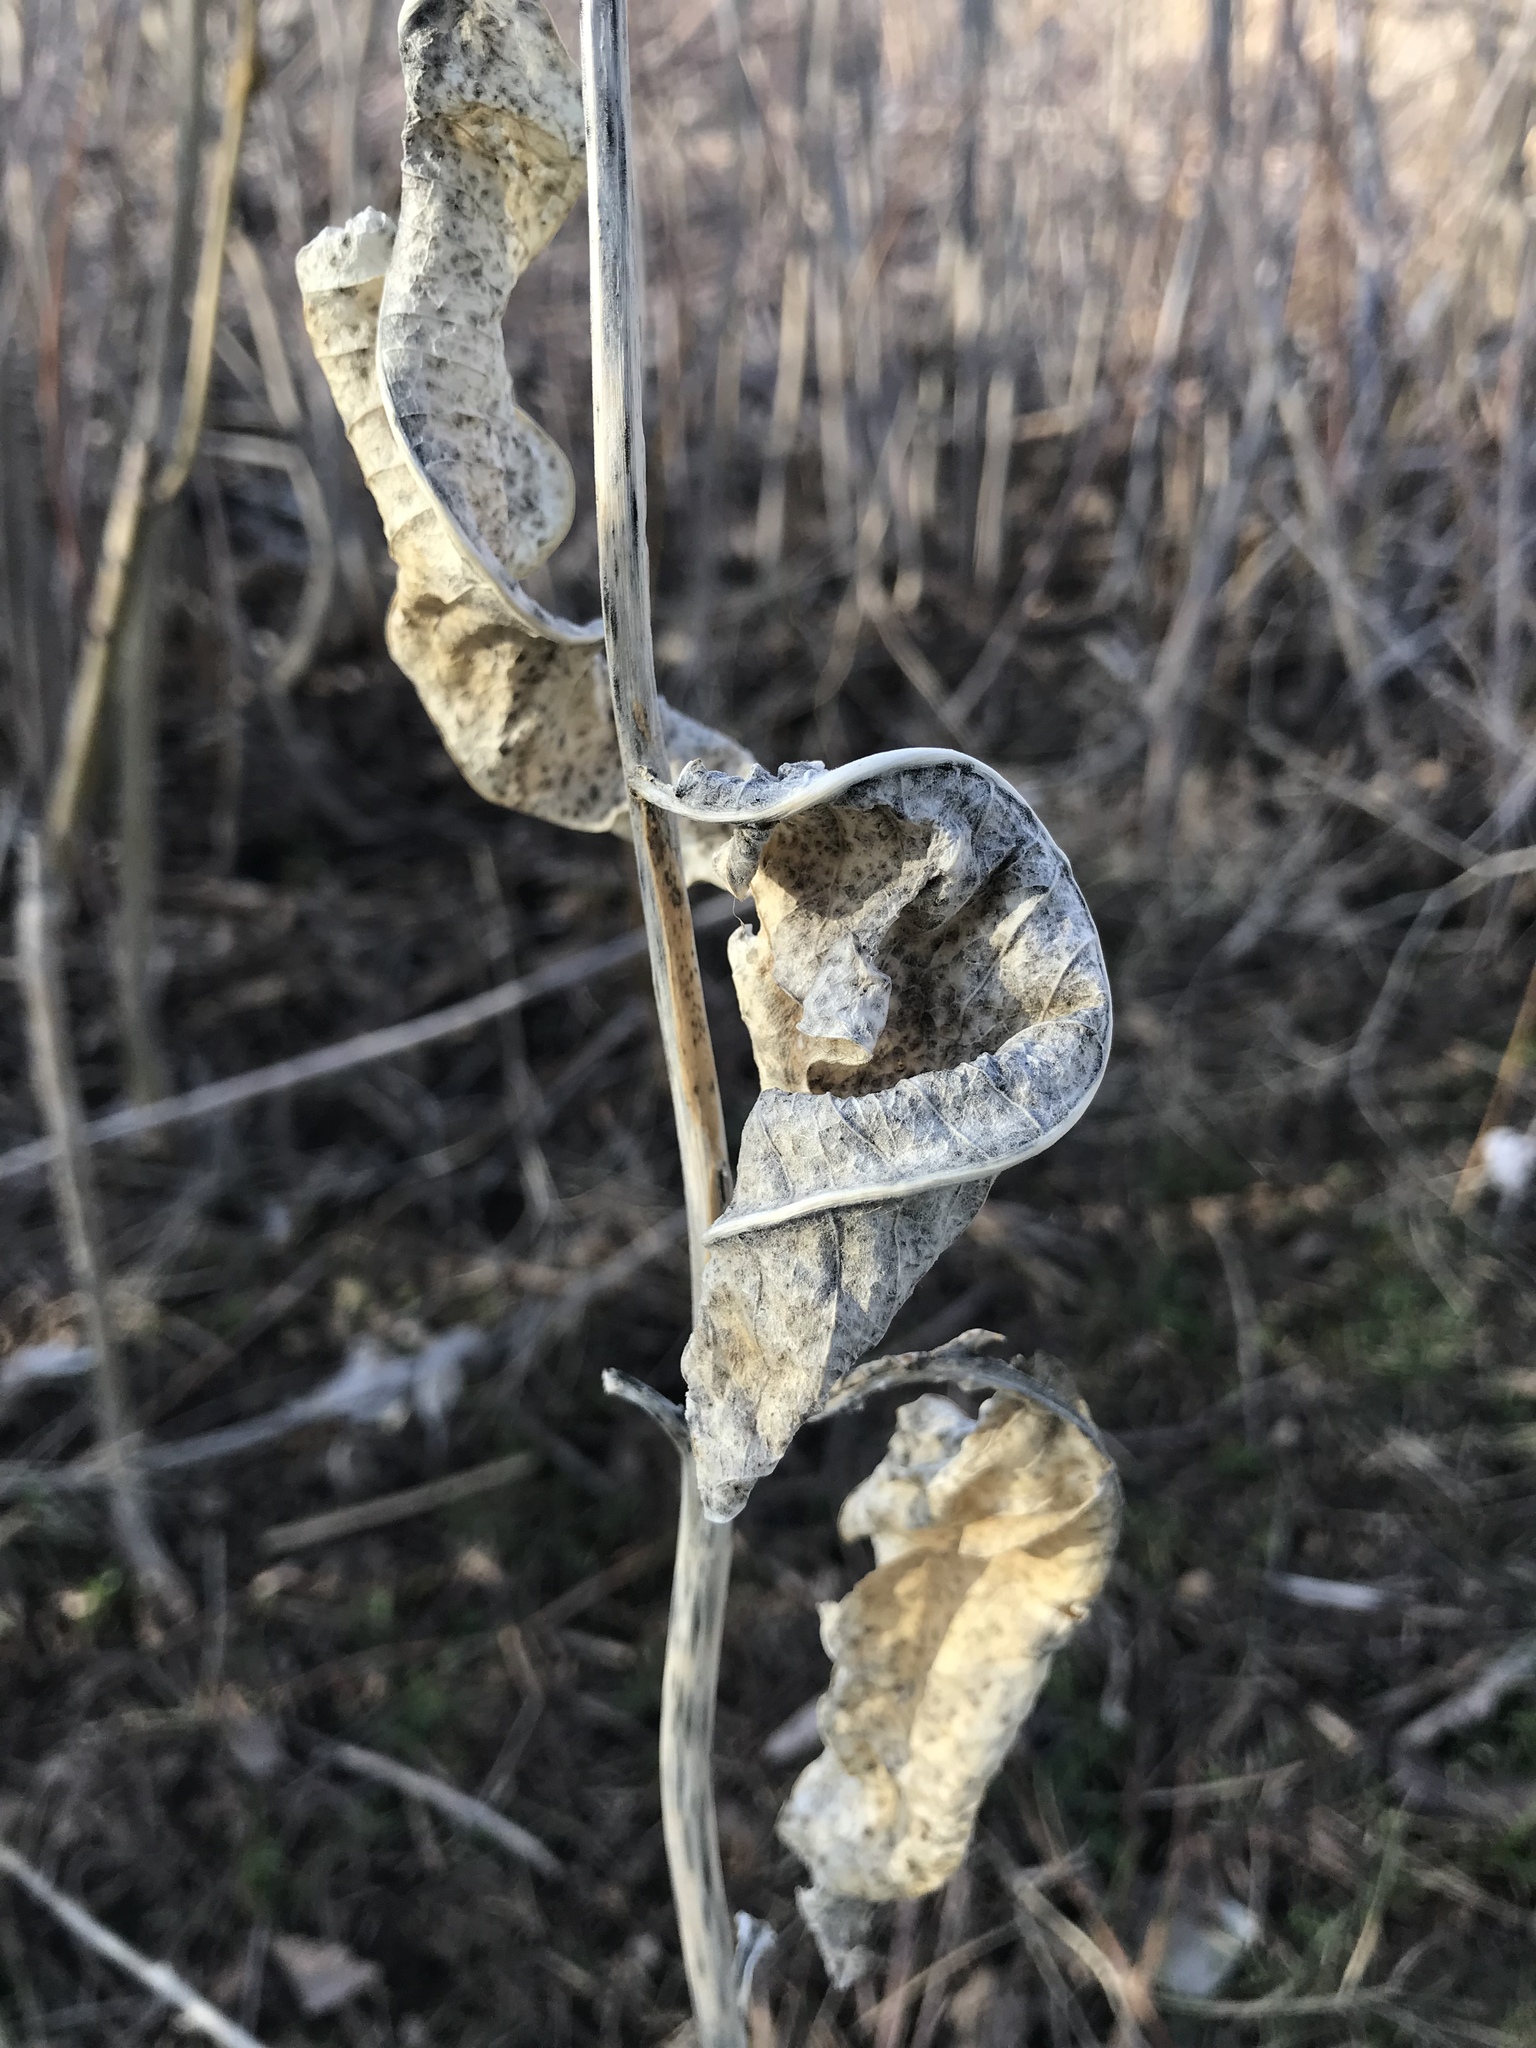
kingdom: Plantae
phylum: Tracheophyta
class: Magnoliopsida
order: Gentianales
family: Apocynaceae
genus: Asclepias
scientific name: Asclepias speciosa
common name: Showy milkweed
